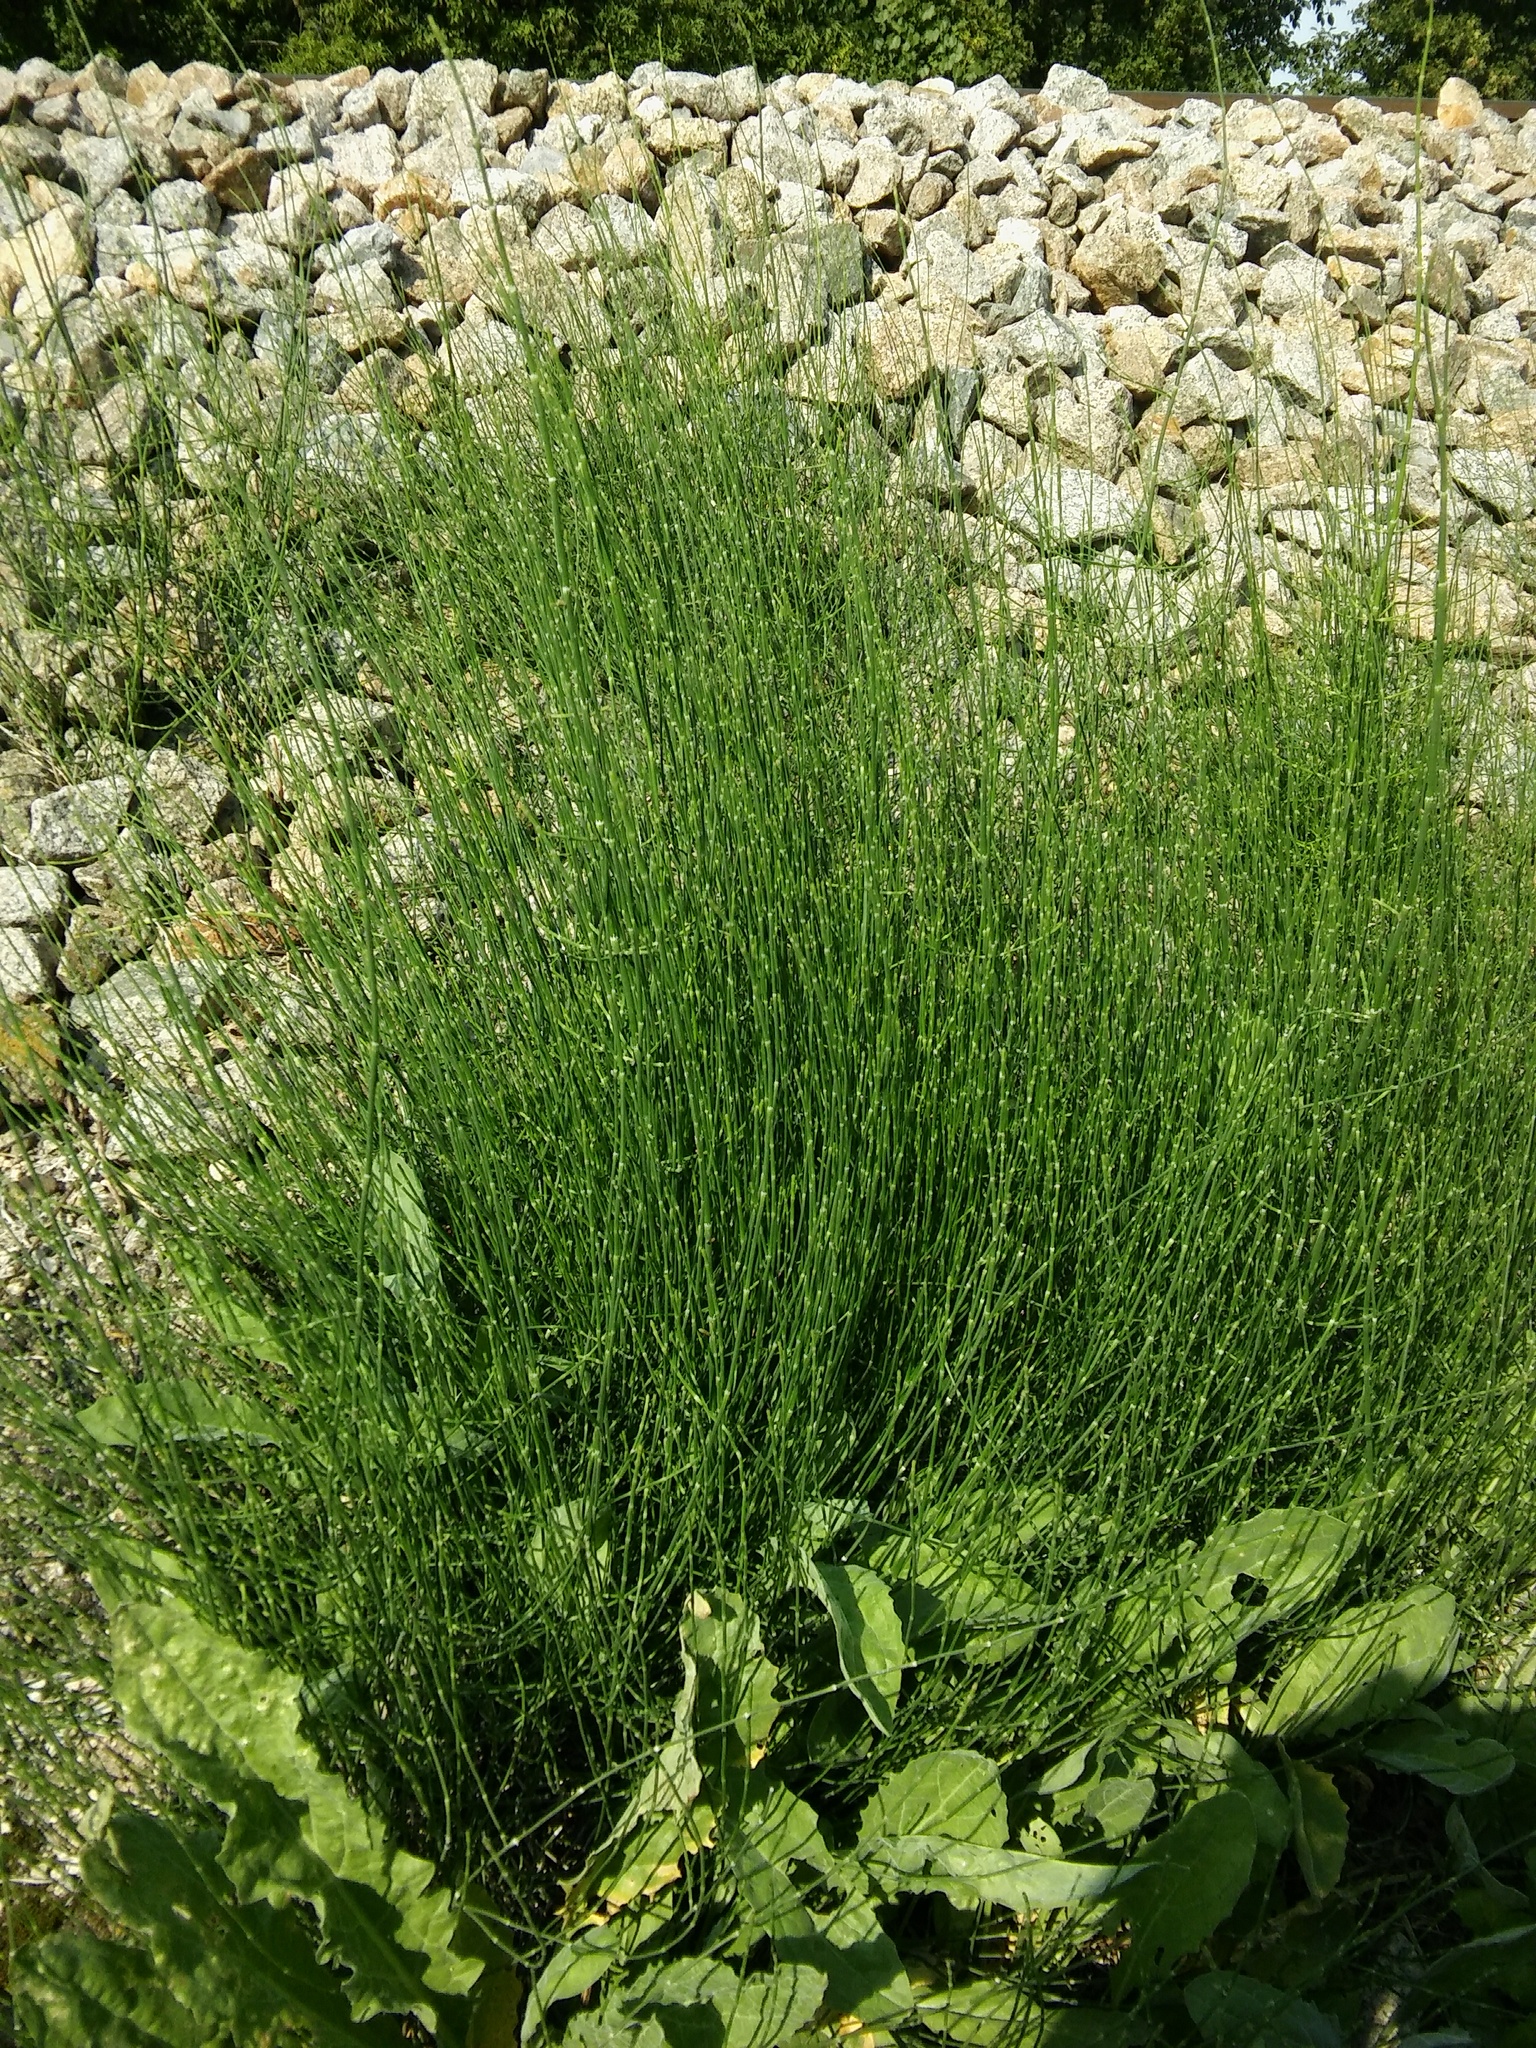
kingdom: Plantae
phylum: Tracheophyta
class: Polypodiopsida
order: Equisetales
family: Equisetaceae
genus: Equisetum
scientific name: Equisetum ramosissimum
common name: Branched horsetail
